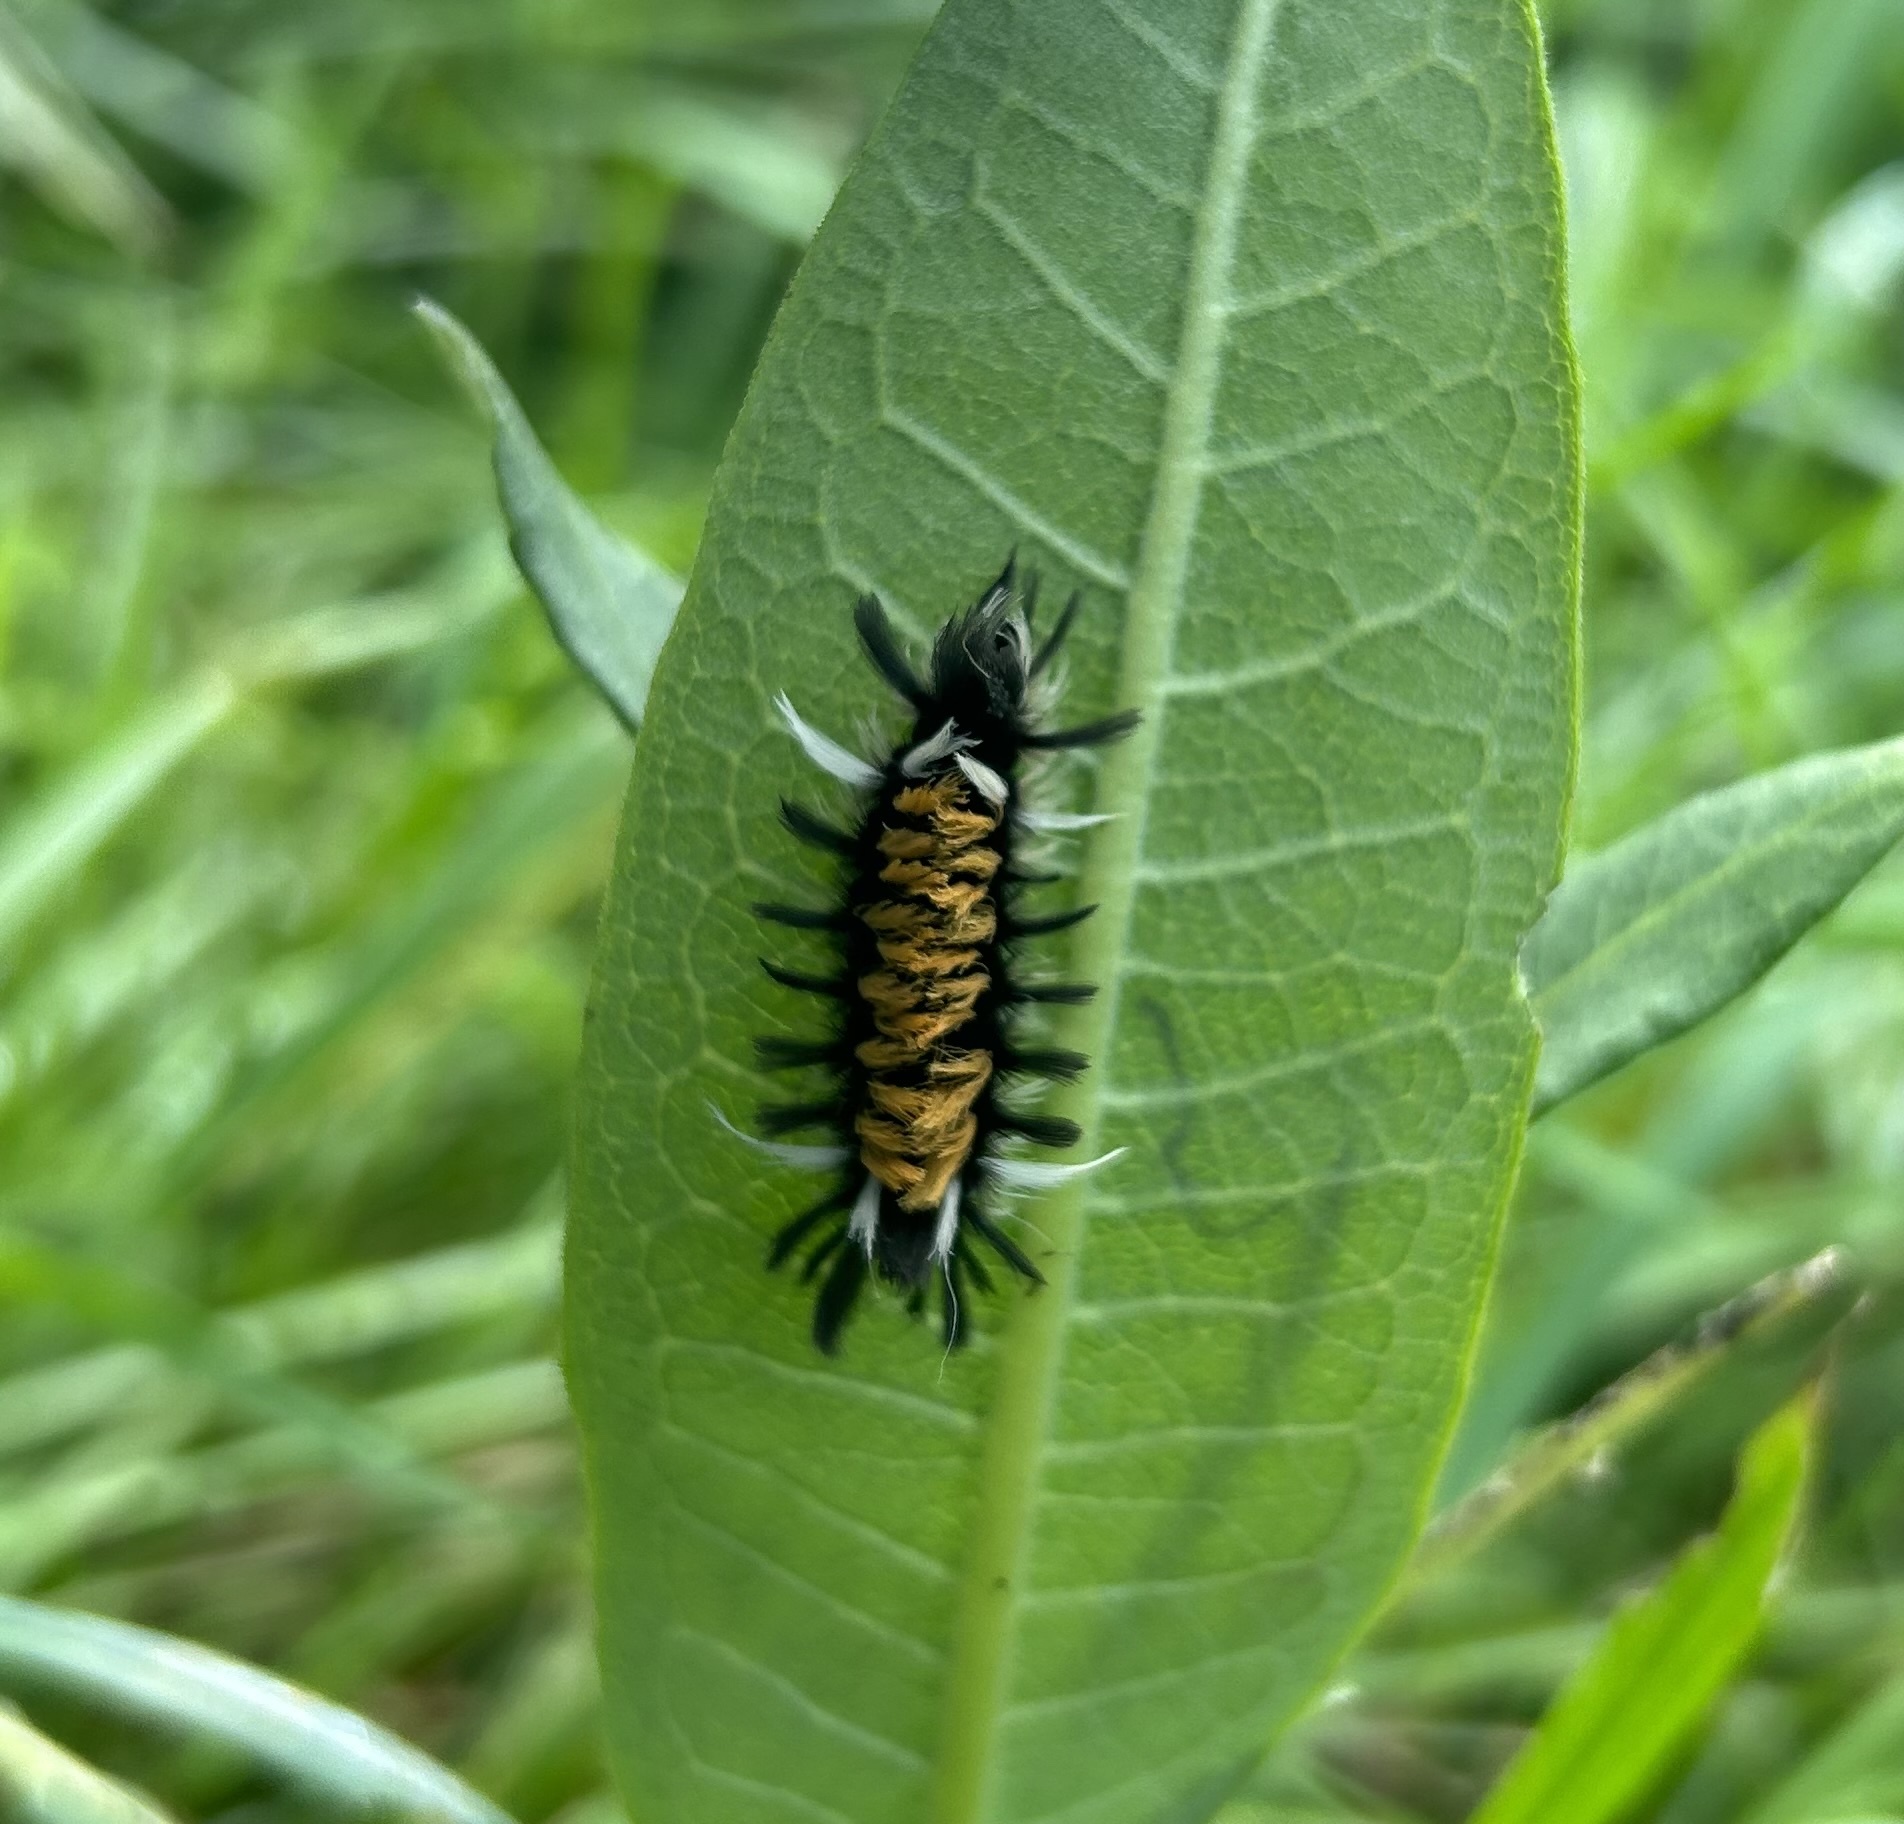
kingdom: Animalia
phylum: Arthropoda
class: Insecta
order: Lepidoptera
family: Erebidae
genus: Euchaetes
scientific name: Euchaetes egle
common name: Milkweed tussock moth
